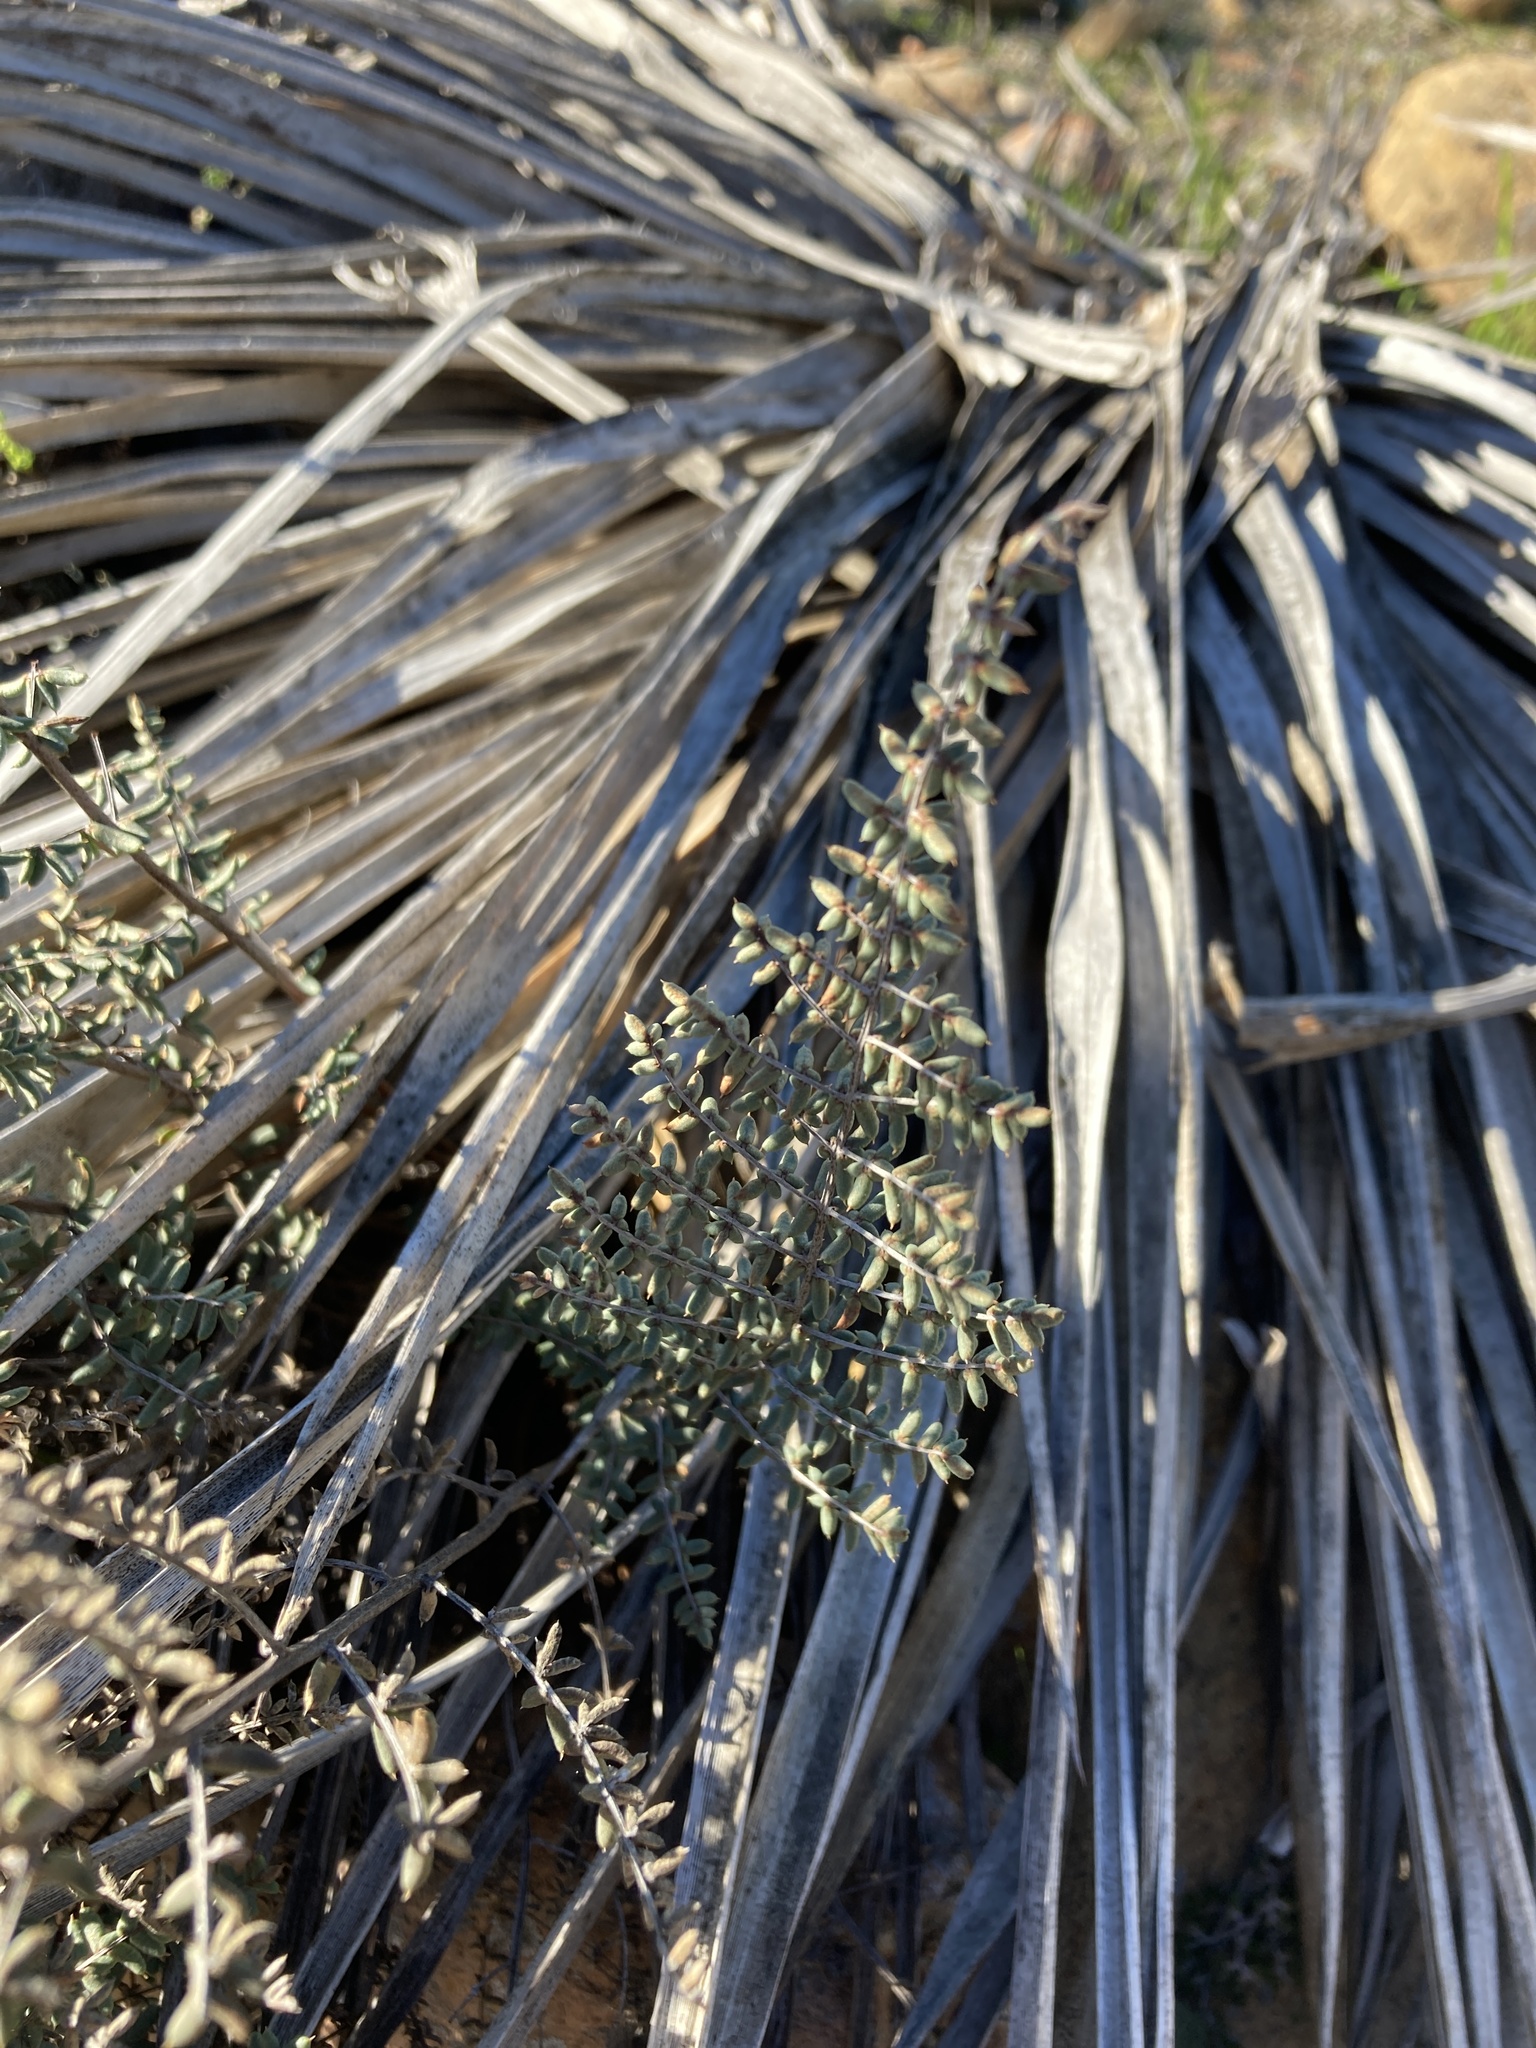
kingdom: Plantae
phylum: Tracheophyta
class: Polypodiopsida
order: Polypodiales
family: Pteridaceae
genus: Pellaea
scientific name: Pellaea mucronata
